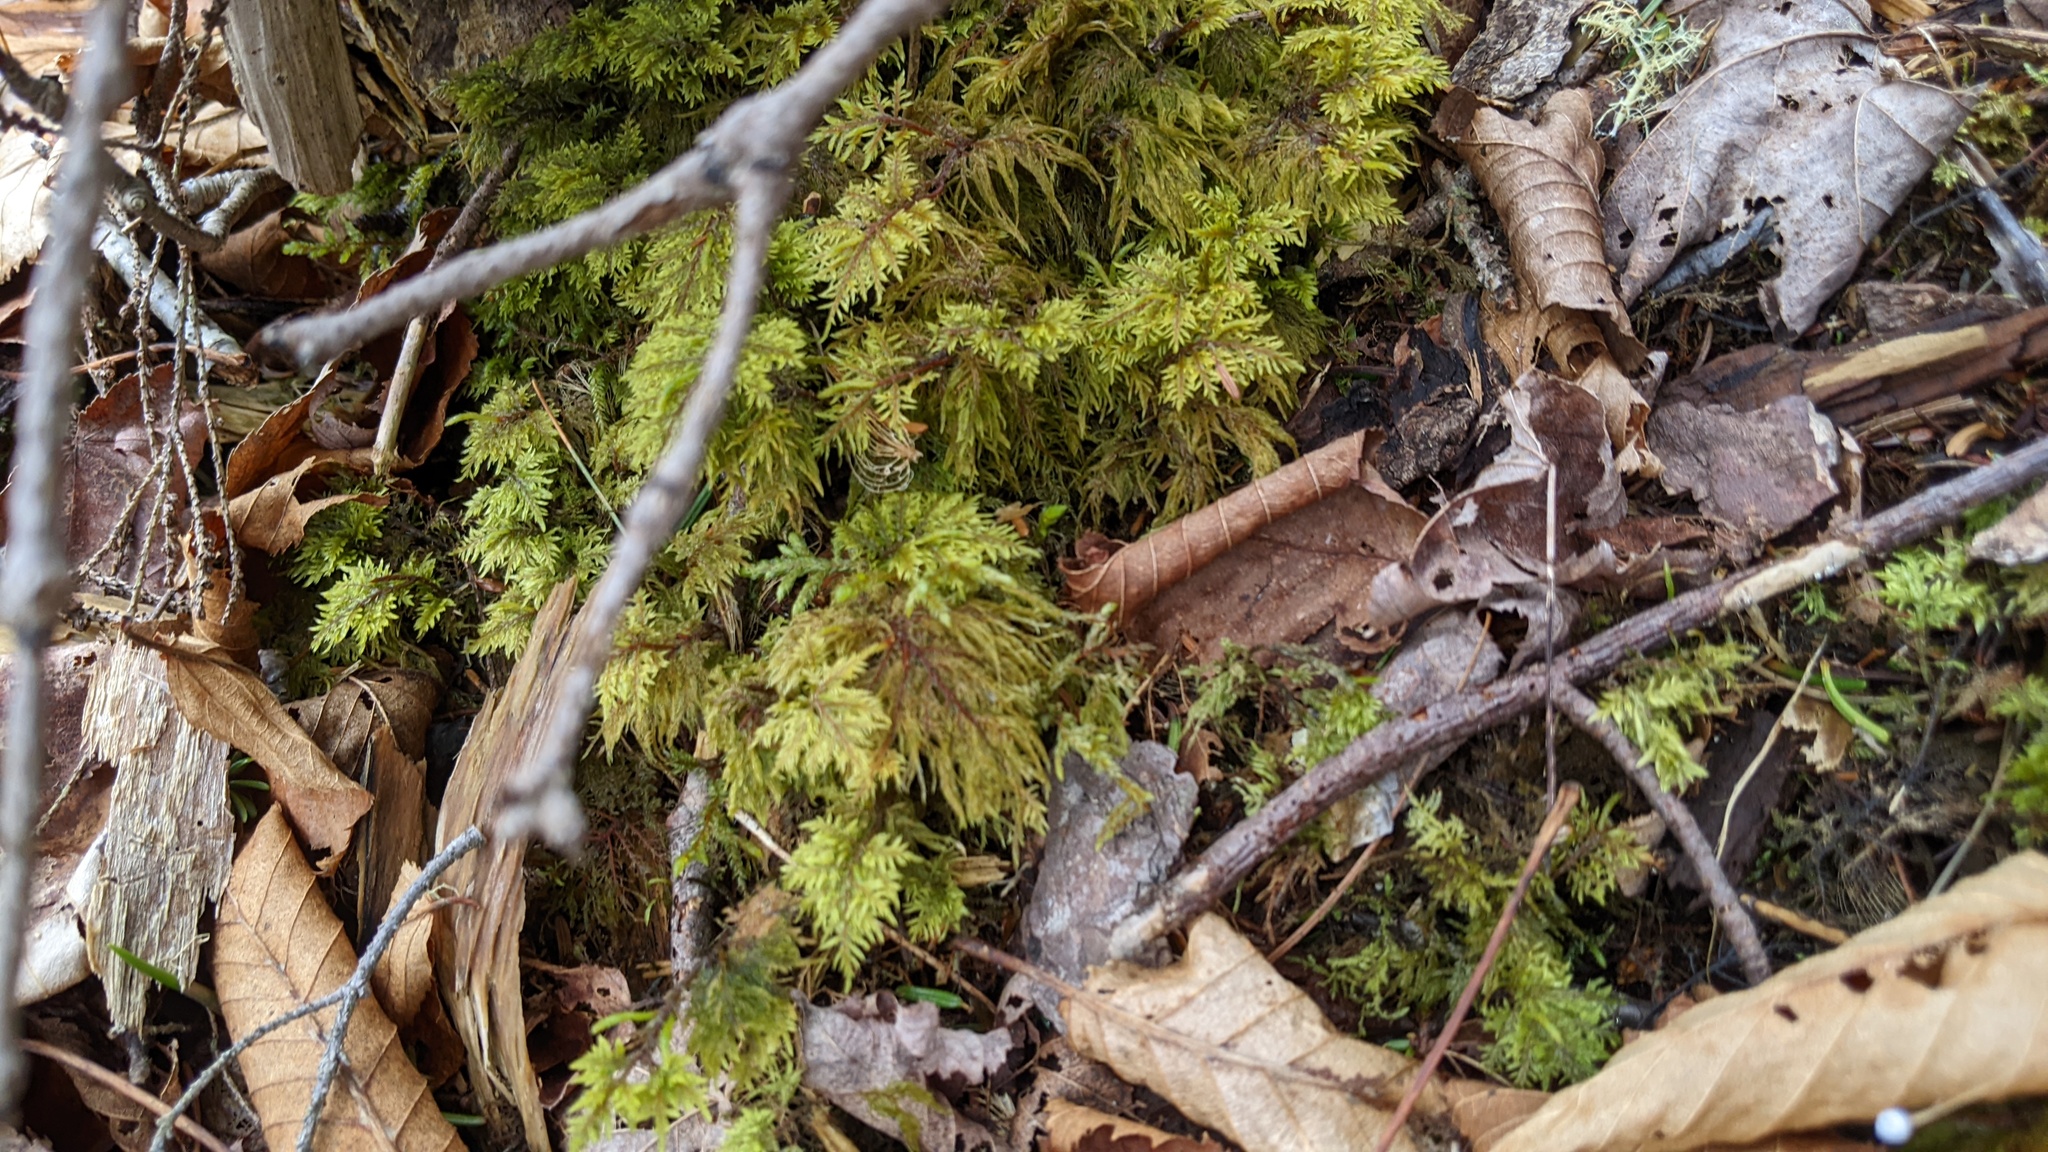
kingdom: Plantae
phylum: Bryophyta
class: Bryopsida
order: Hypnales
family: Hylocomiaceae
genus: Hylocomium
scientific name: Hylocomium splendens
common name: Stairstep moss
